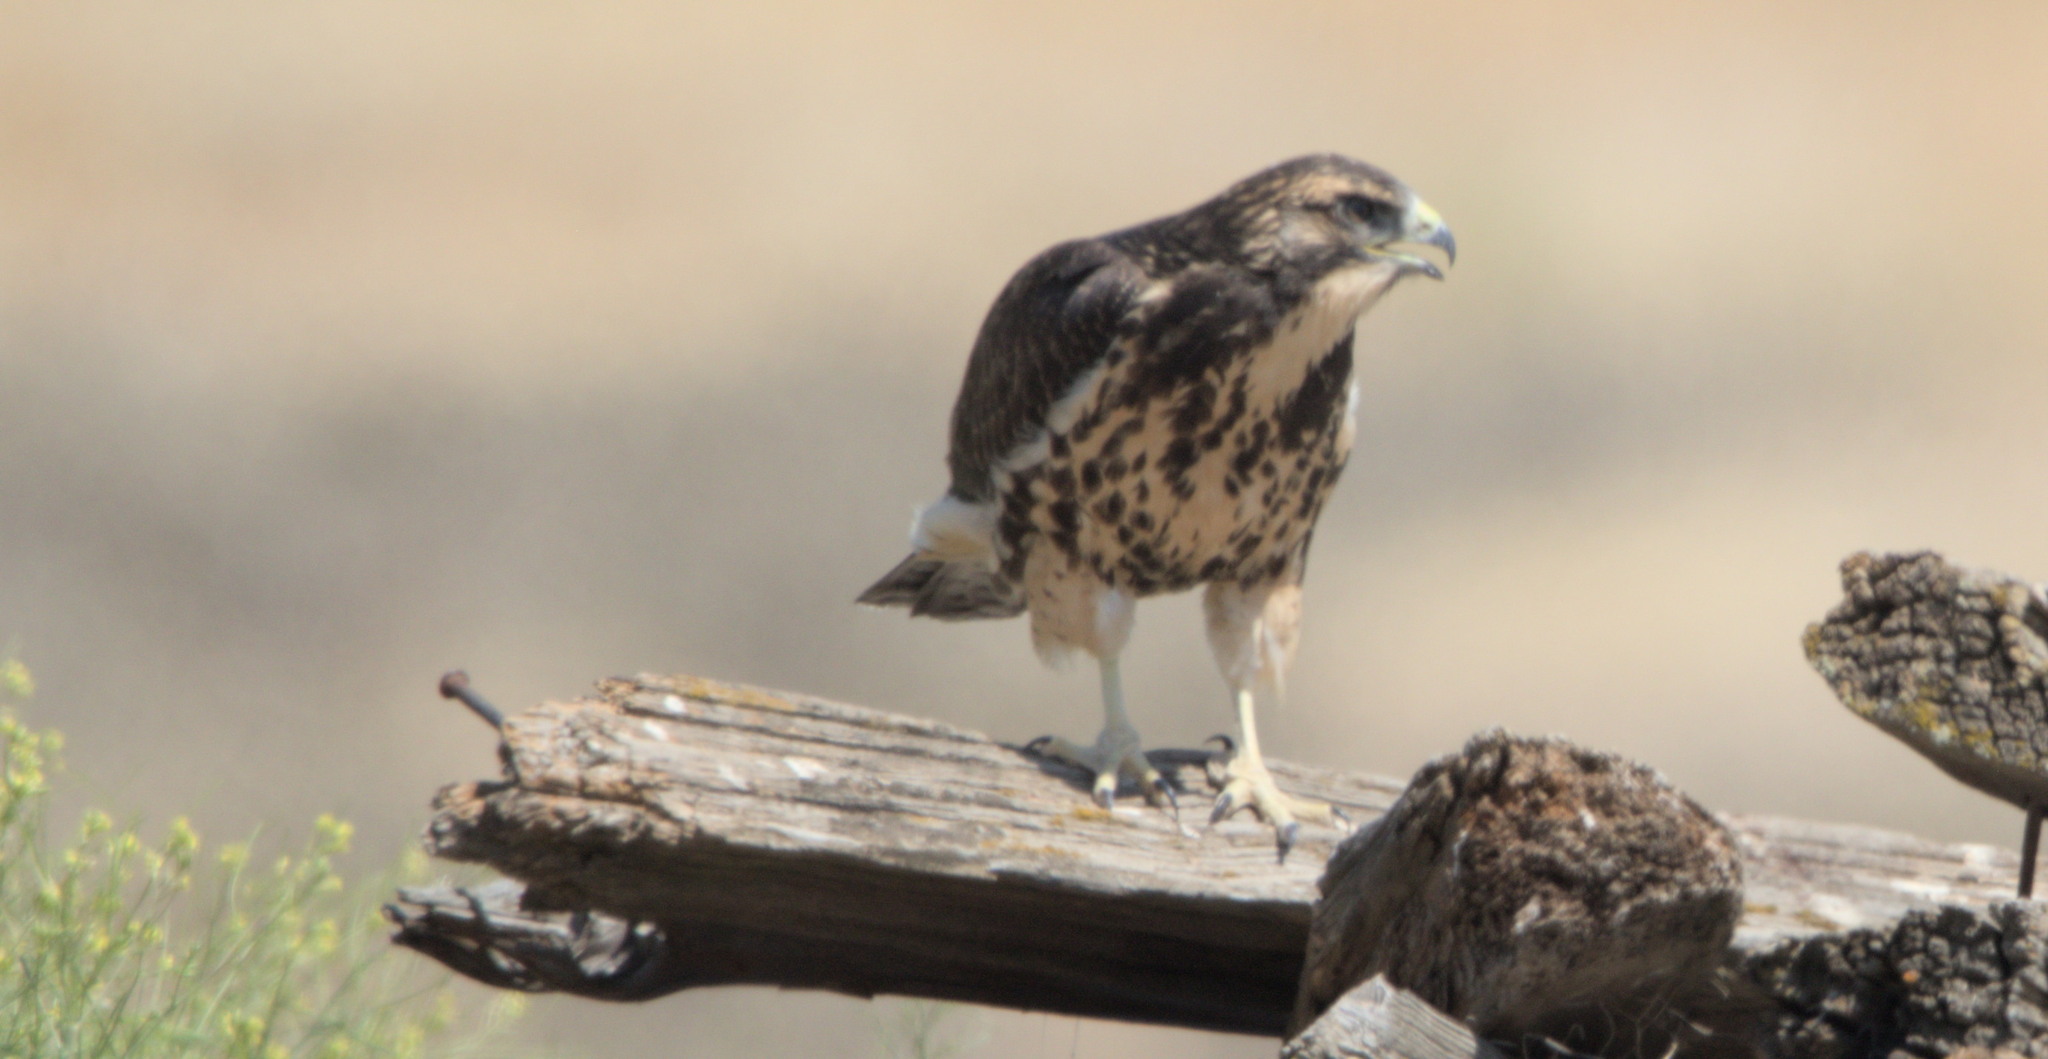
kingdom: Animalia
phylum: Chordata
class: Aves
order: Accipitriformes
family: Accipitridae
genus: Buteo
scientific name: Buteo swainsoni
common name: Swainson's hawk
